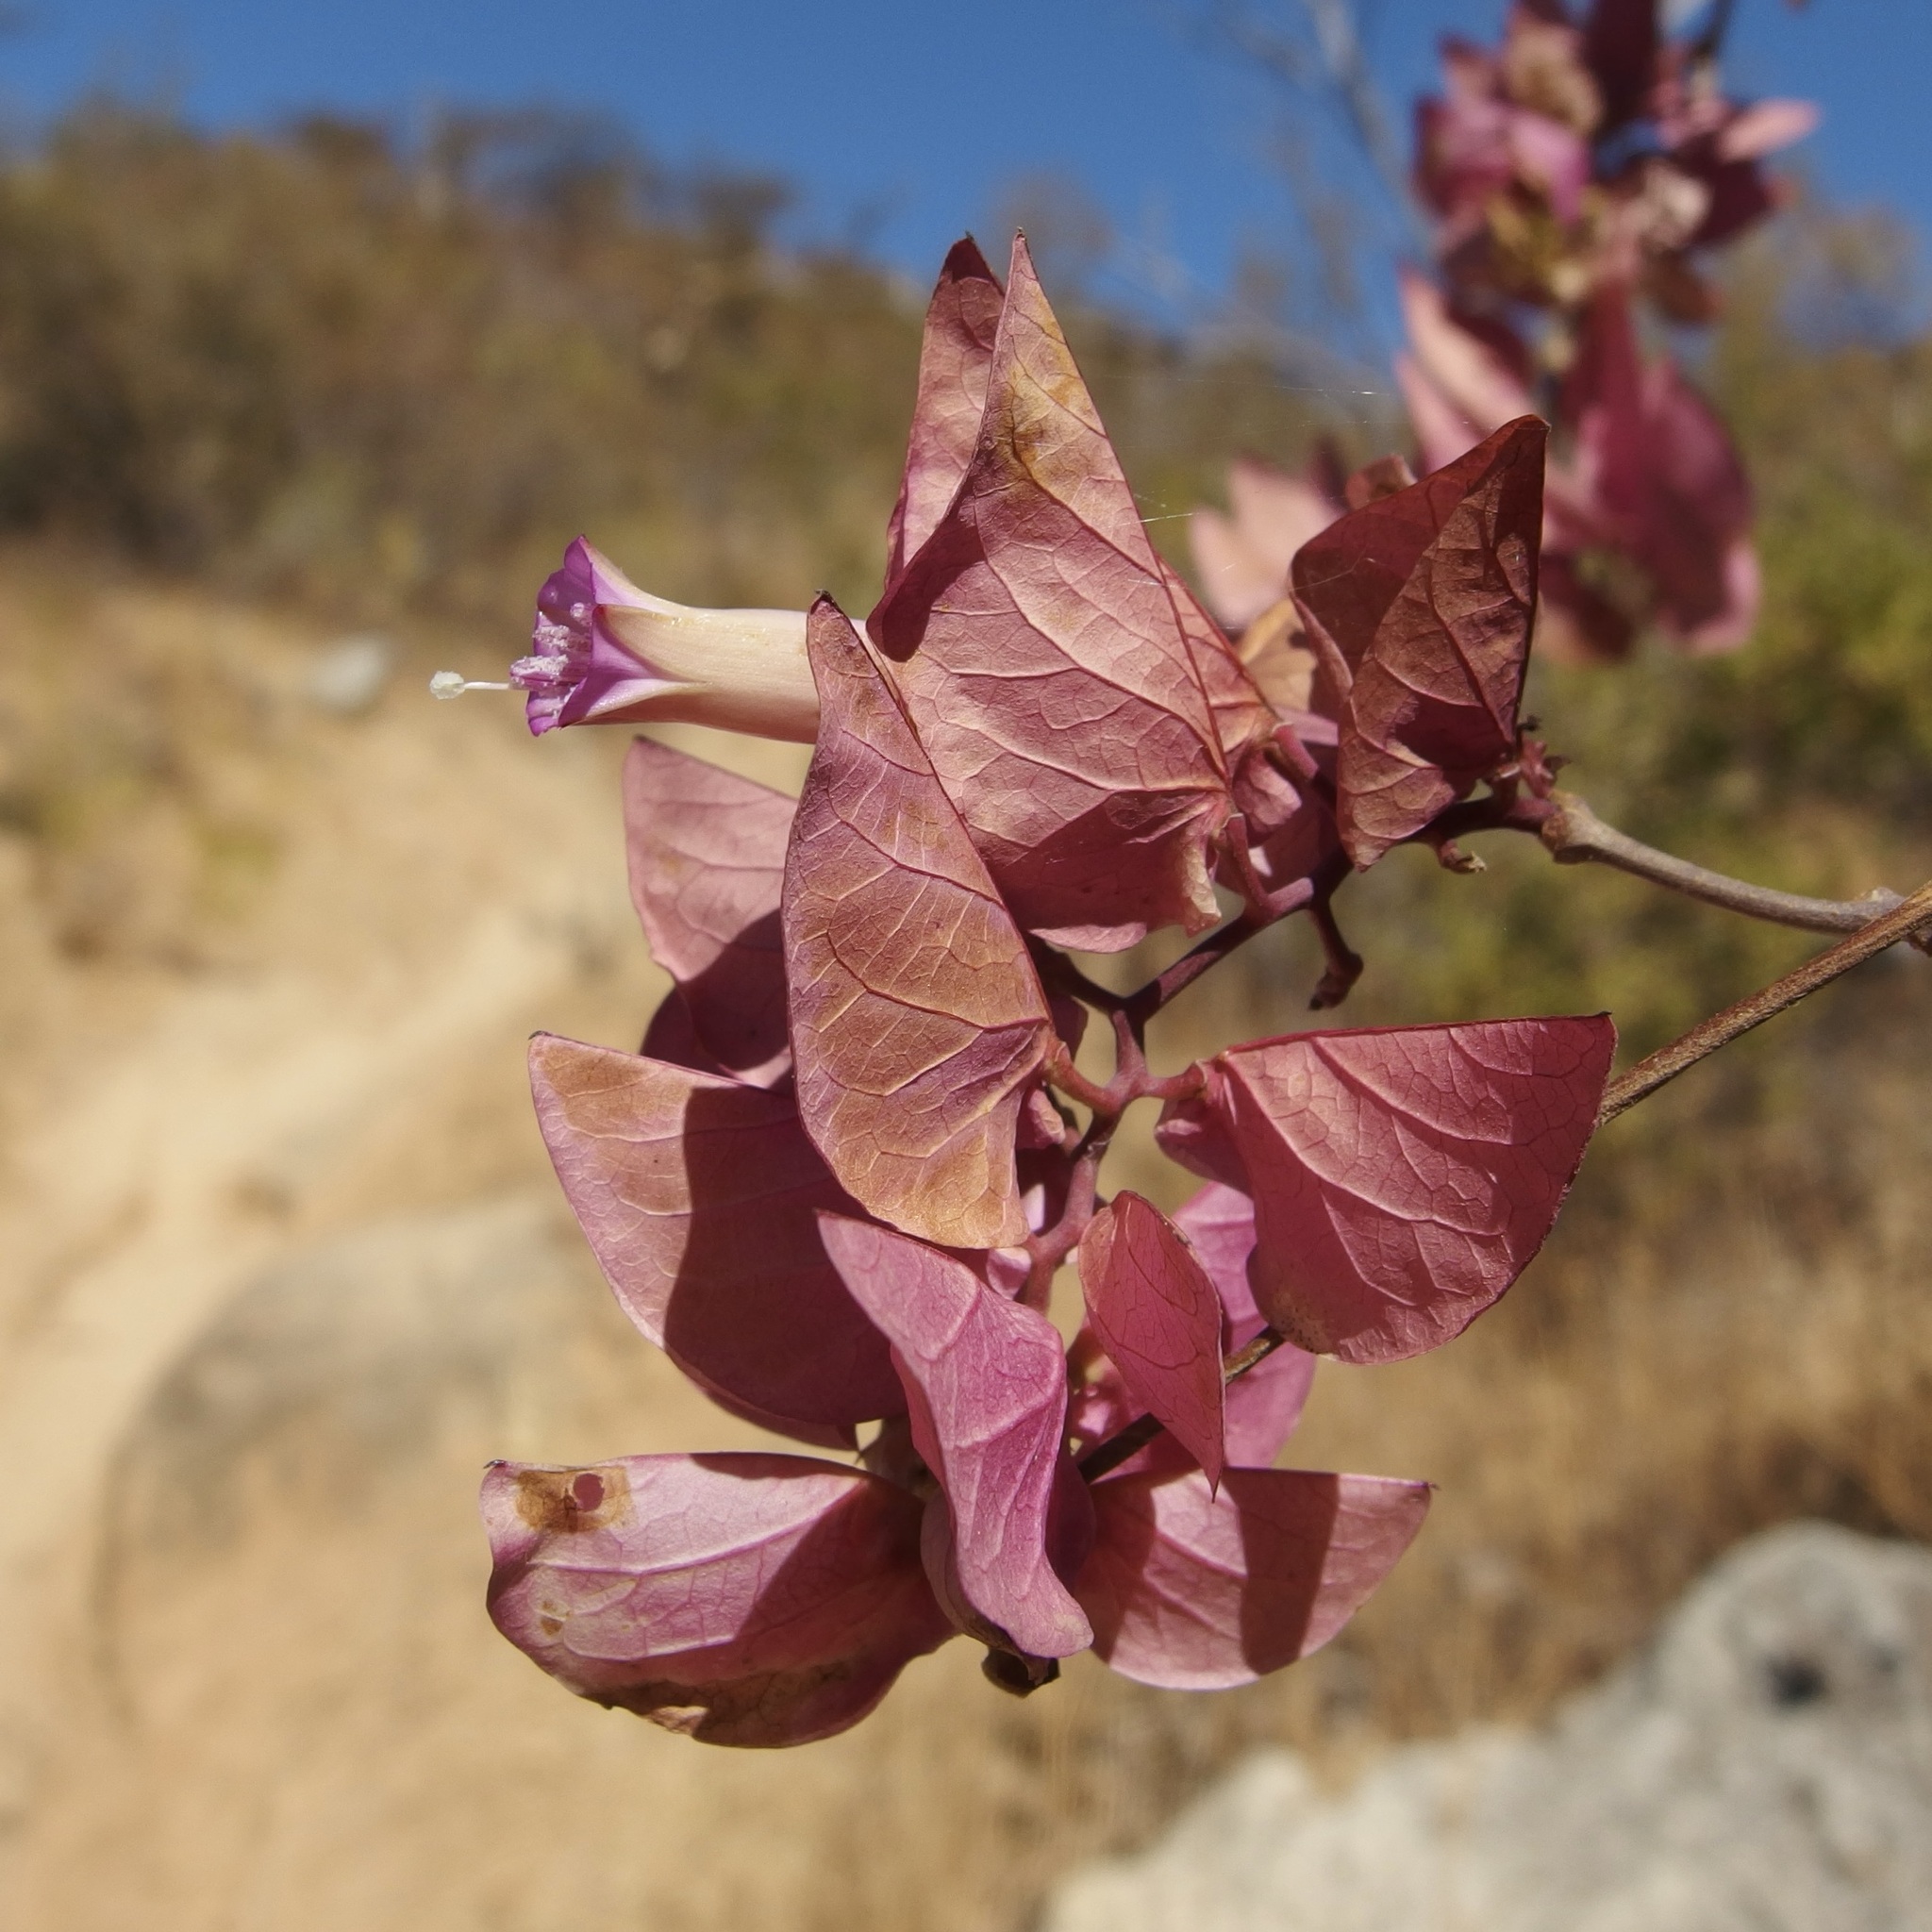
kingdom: Plantae
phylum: Tracheophyta
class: Magnoliopsida
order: Solanales
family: Convolvulaceae
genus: Ipomoea
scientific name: Ipomoea bracteata
